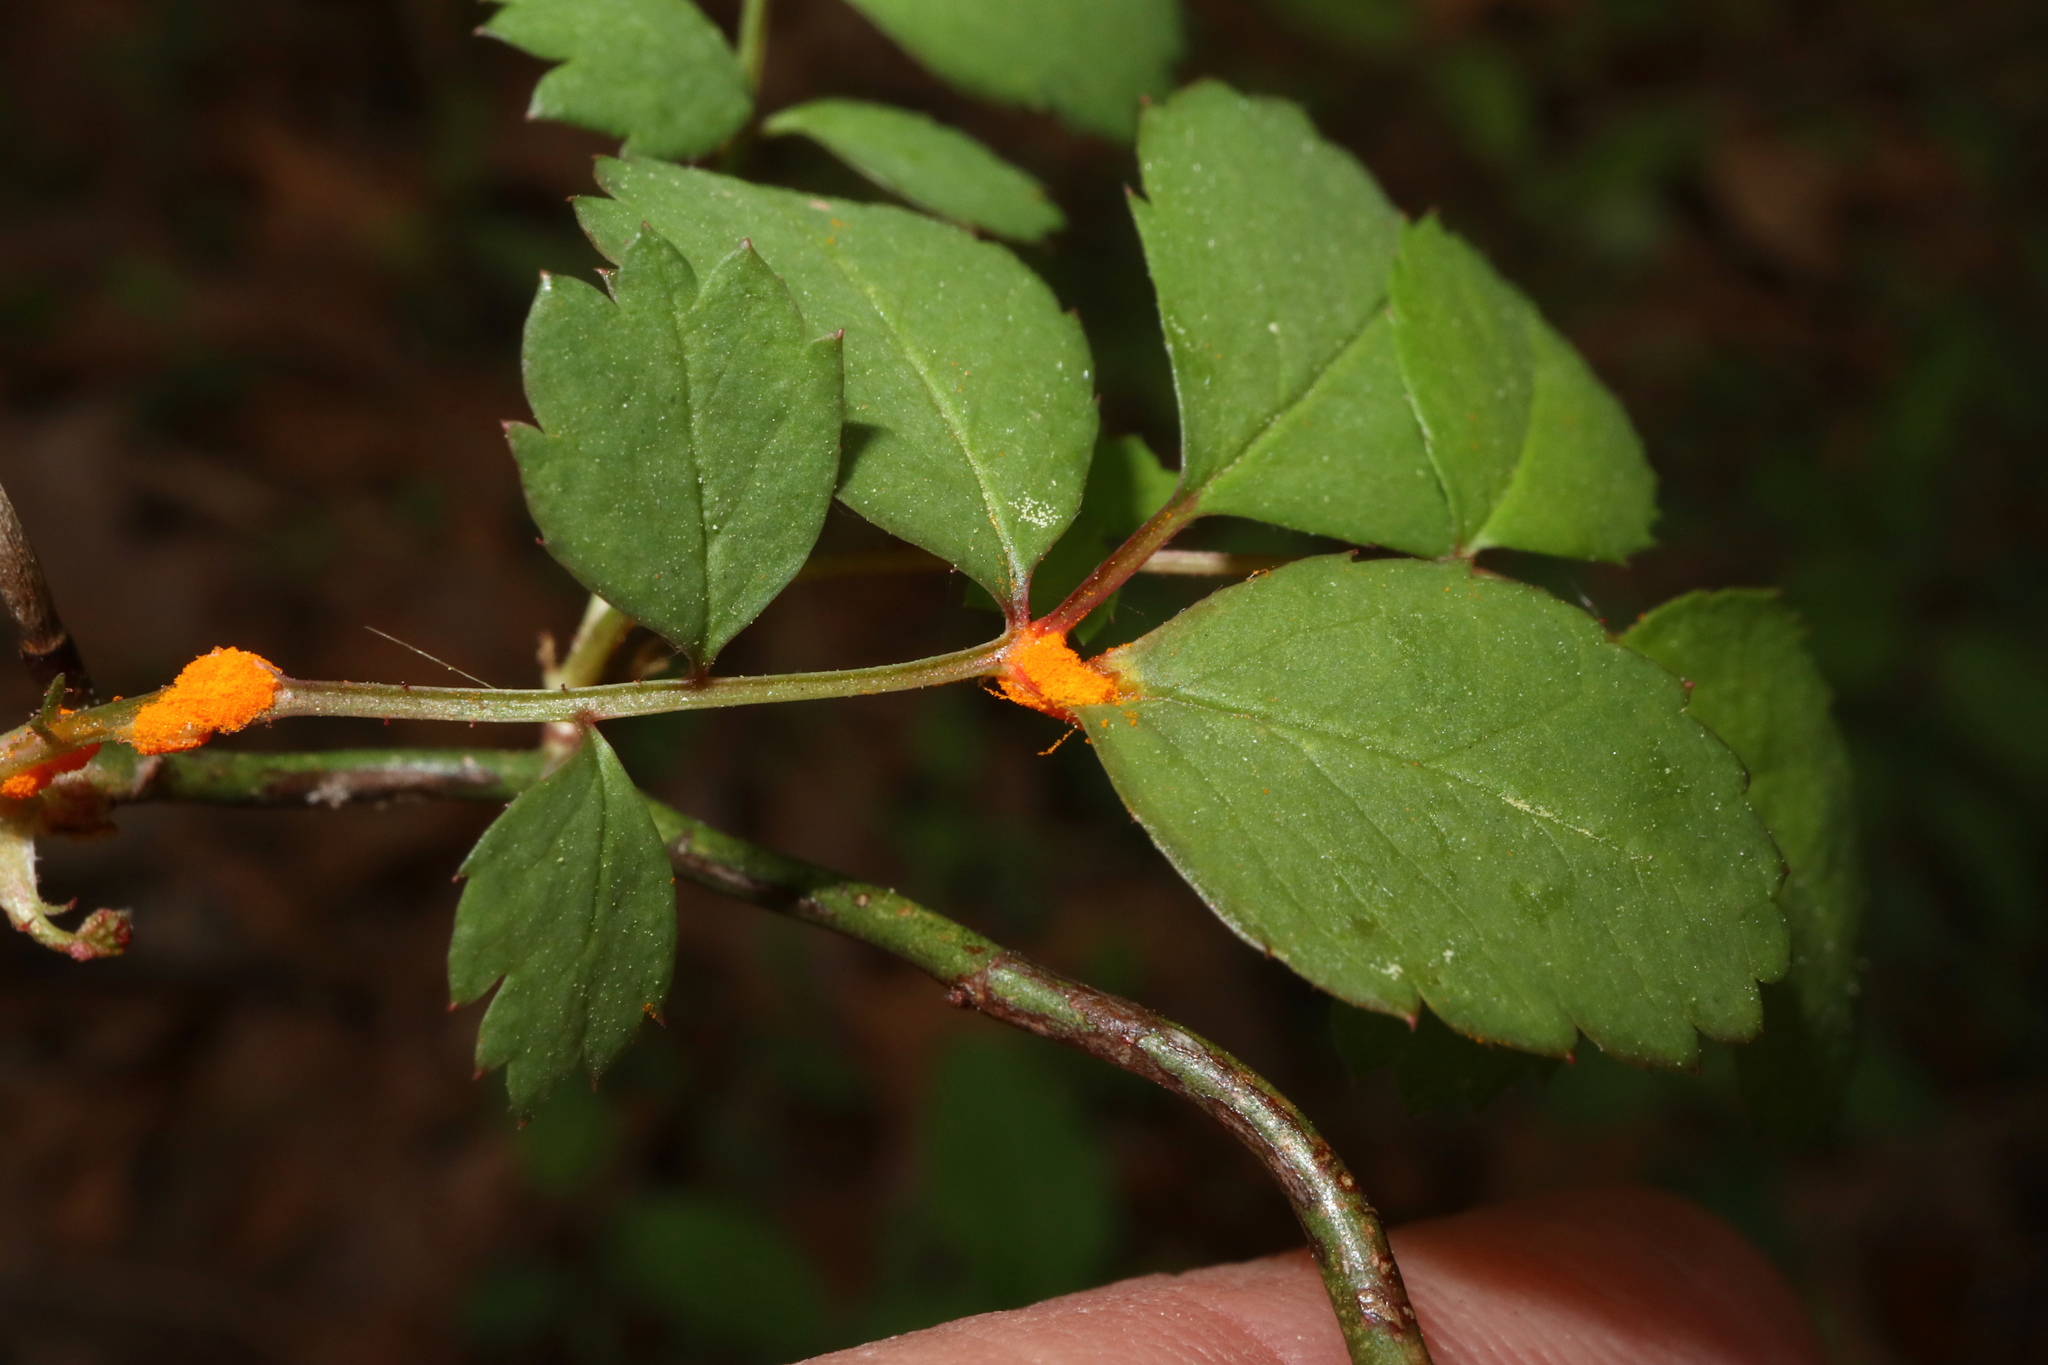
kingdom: Fungi
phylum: Basidiomycota
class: Pucciniomycetes
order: Pucciniales
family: Phragmidiaceae
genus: Phragmidium
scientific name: Phragmidium rosae-multiflorae
